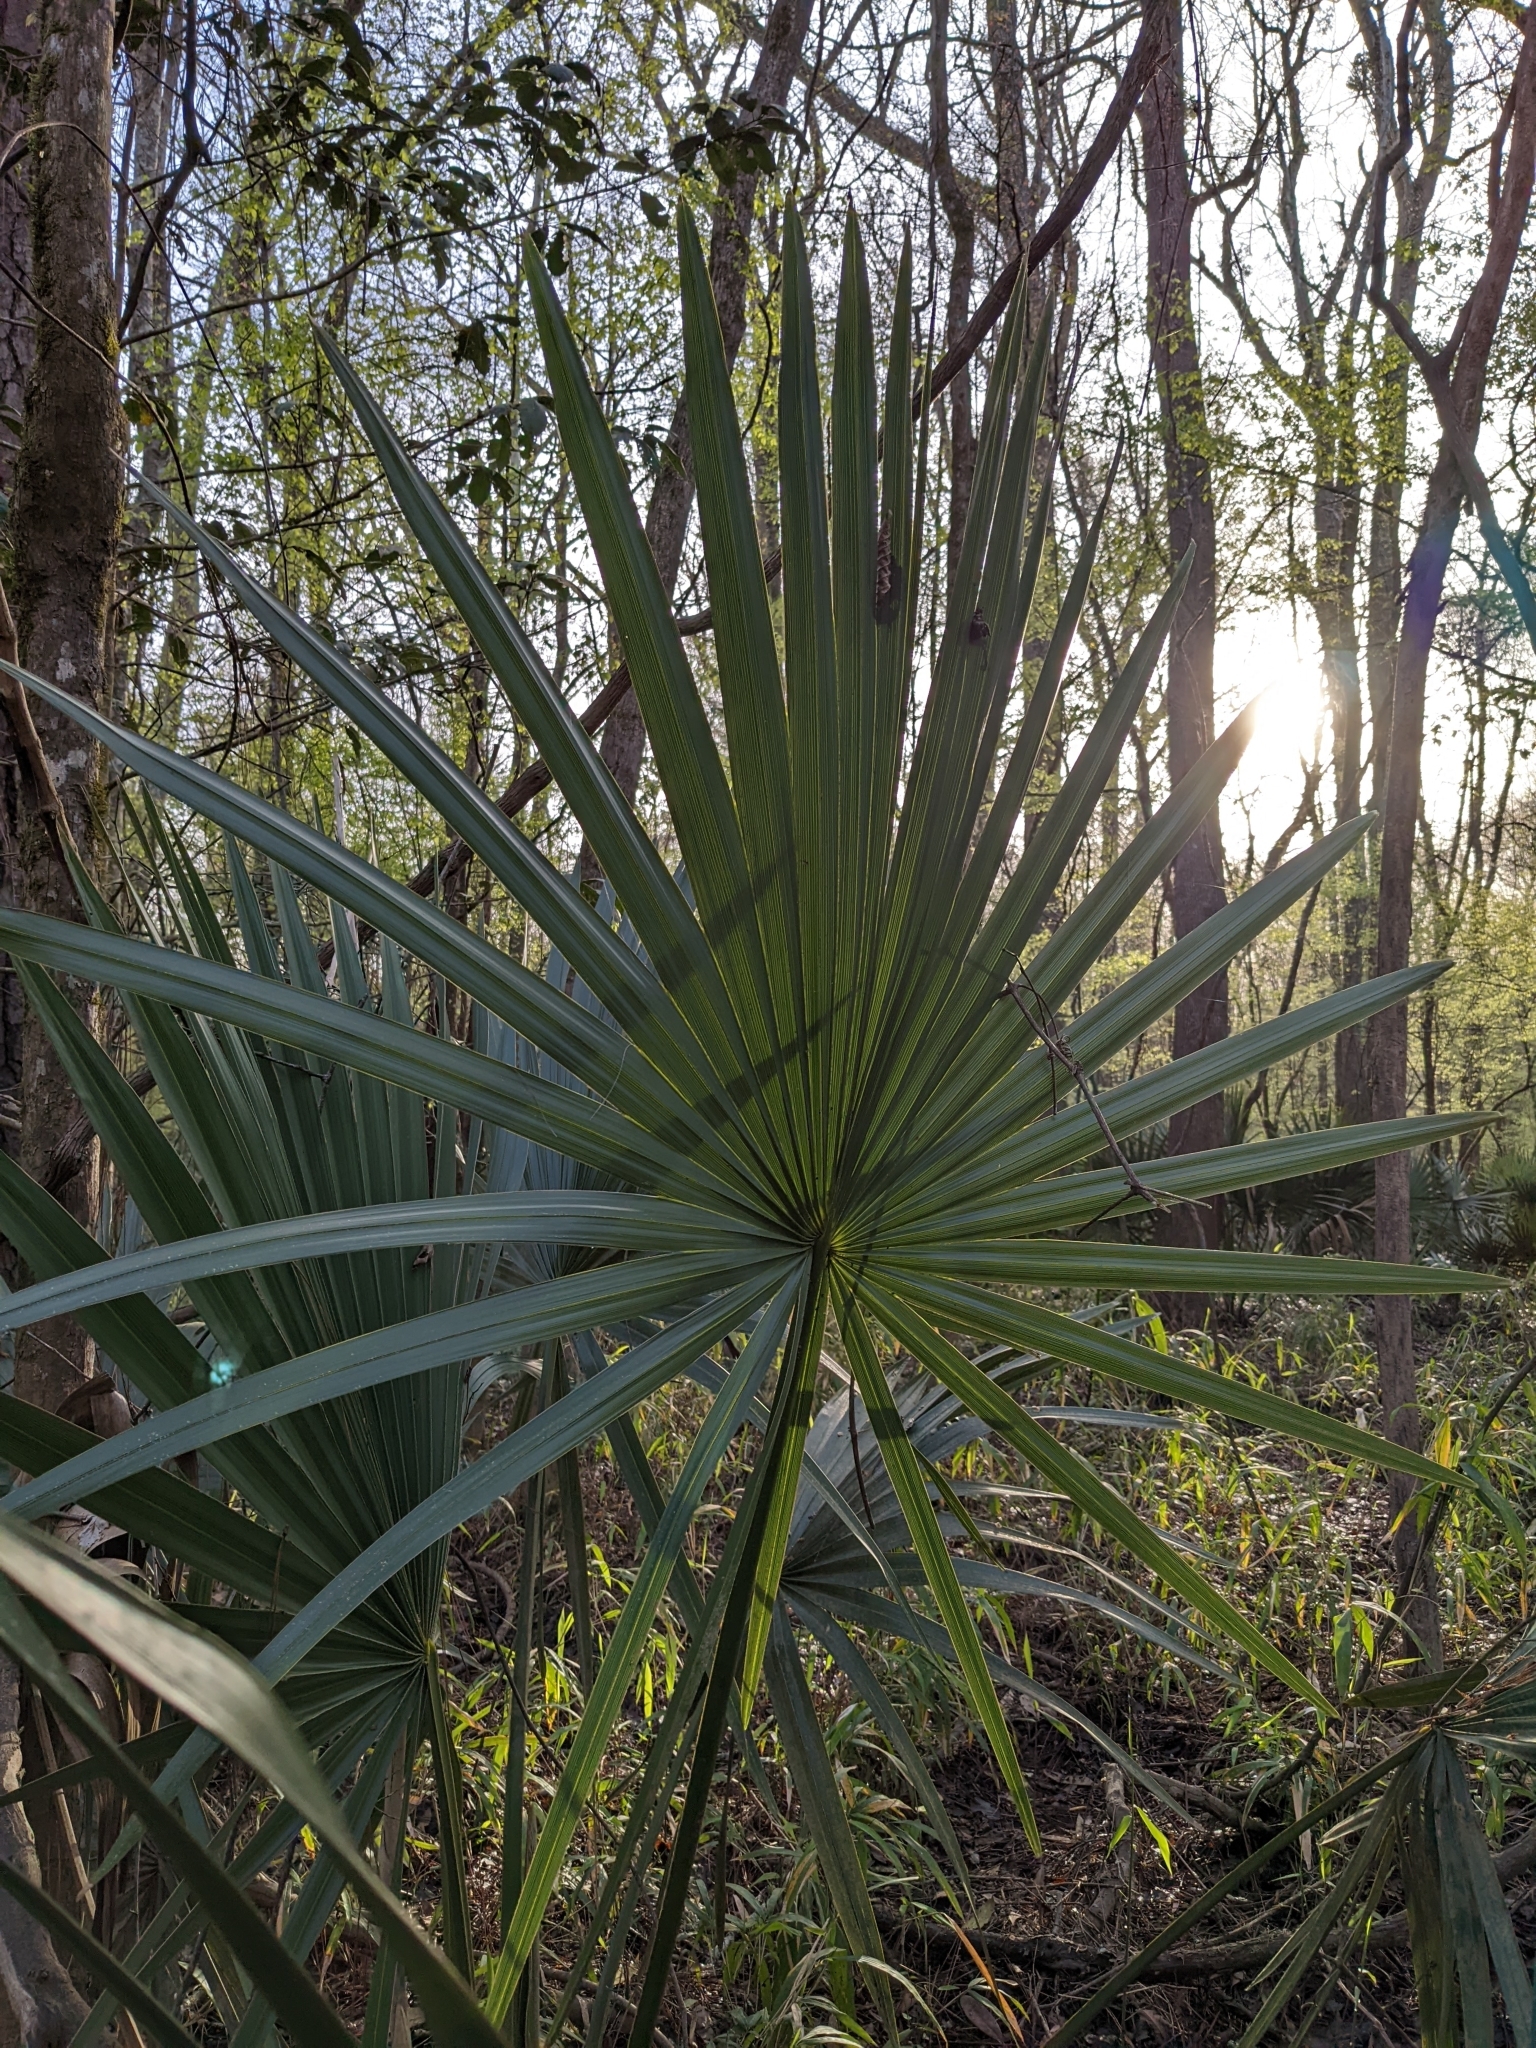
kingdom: Plantae
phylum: Tracheophyta
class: Liliopsida
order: Arecales
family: Arecaceae
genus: Sabal
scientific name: Sabal minor
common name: Dwarf palmetto
